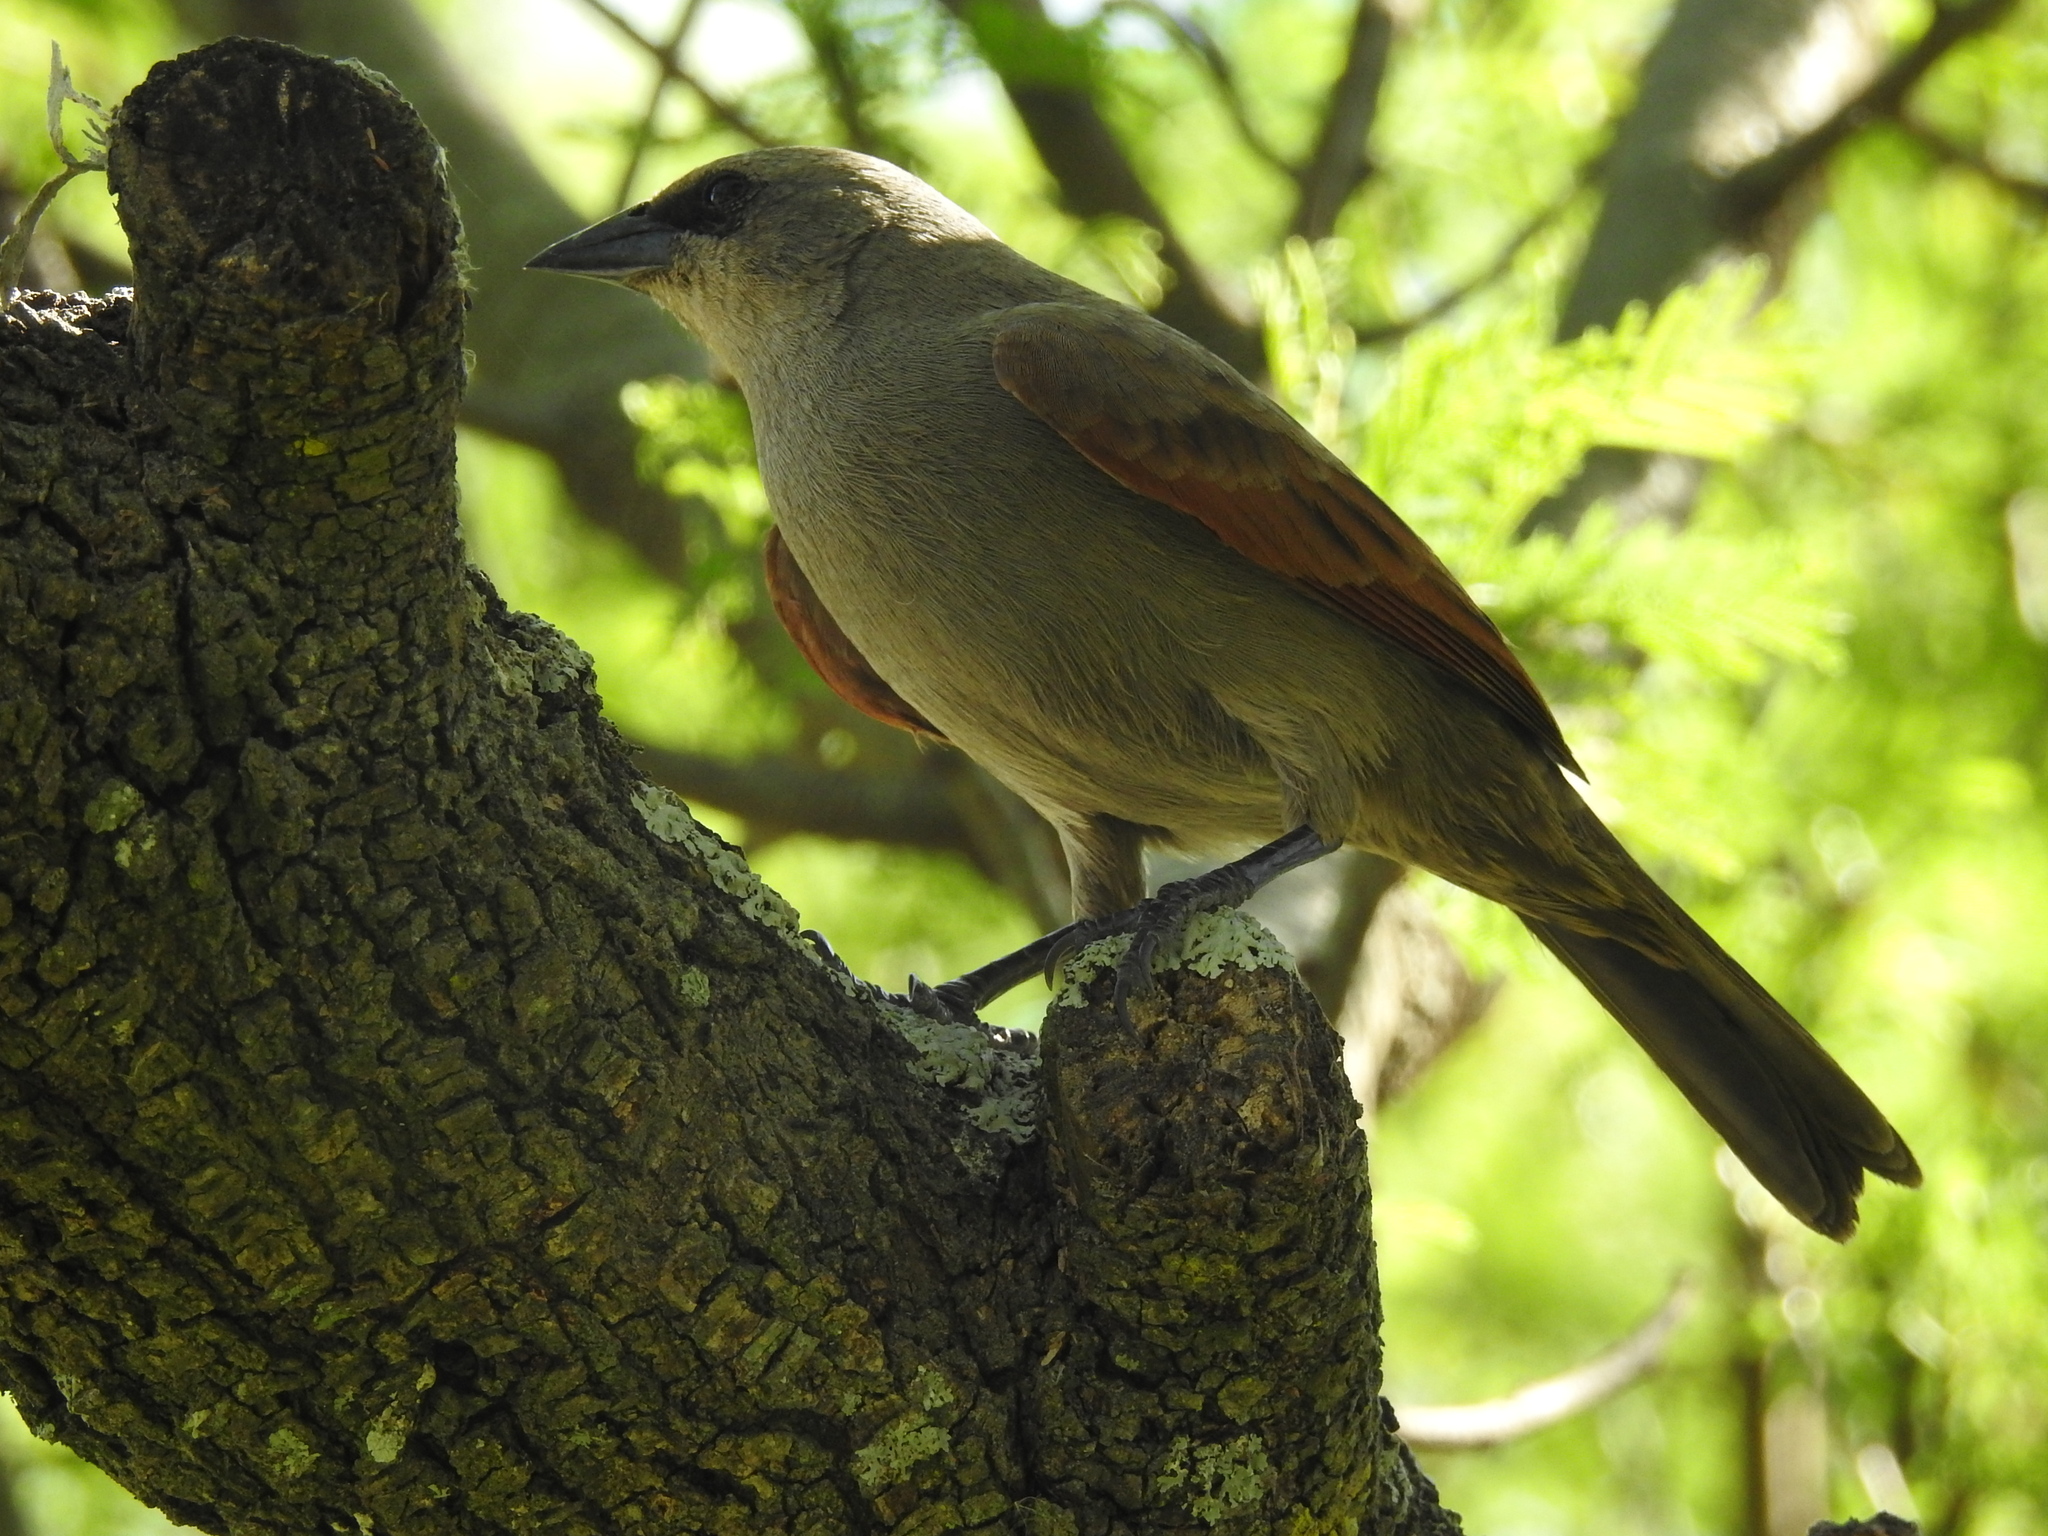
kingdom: Animalia
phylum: Chordata
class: Aves
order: Passeriformes
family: Icteridae
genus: Agelaioides
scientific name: Agelaioides badius
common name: Baywing
